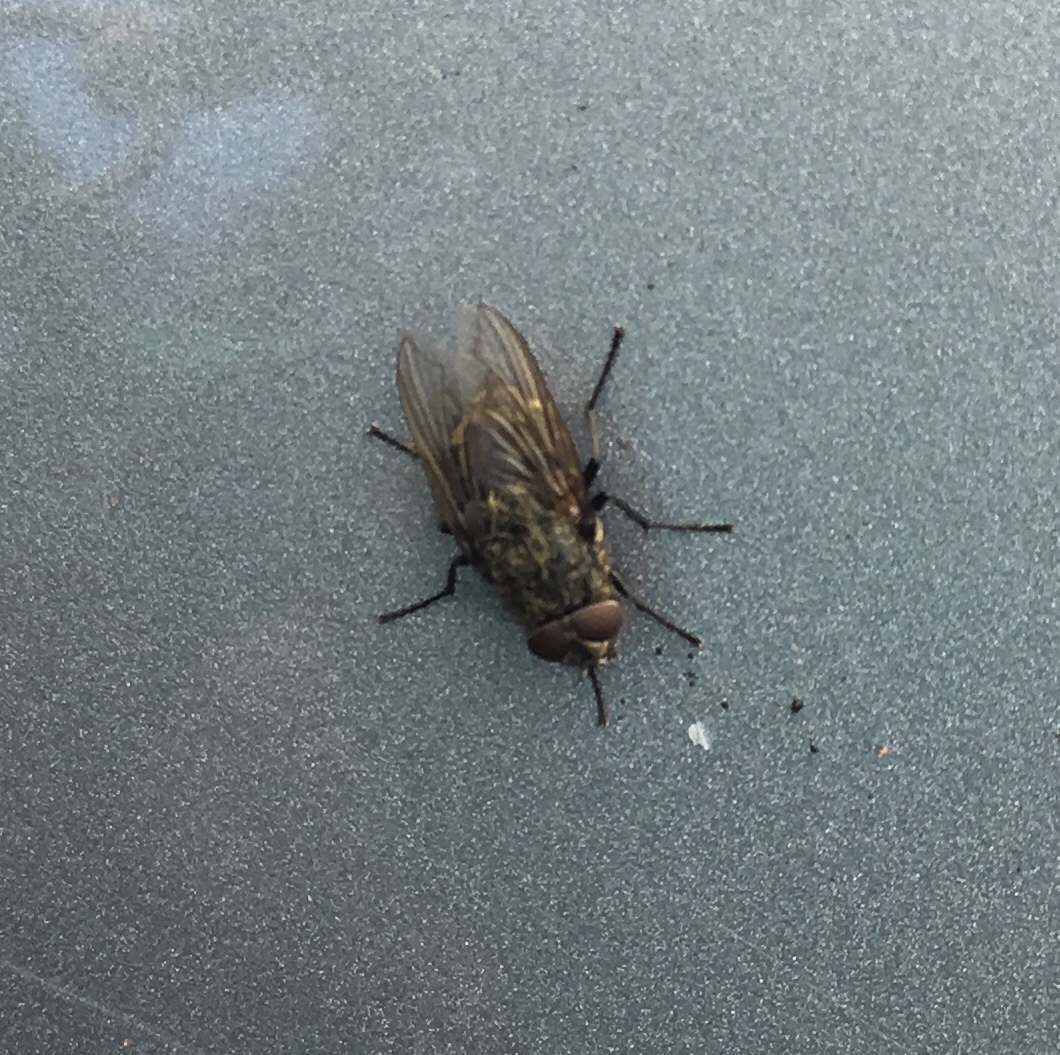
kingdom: Animalia
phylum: Arthropoda
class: Insecta
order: Diptera
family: Polleniidae
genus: Pollenia
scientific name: Pollenia
